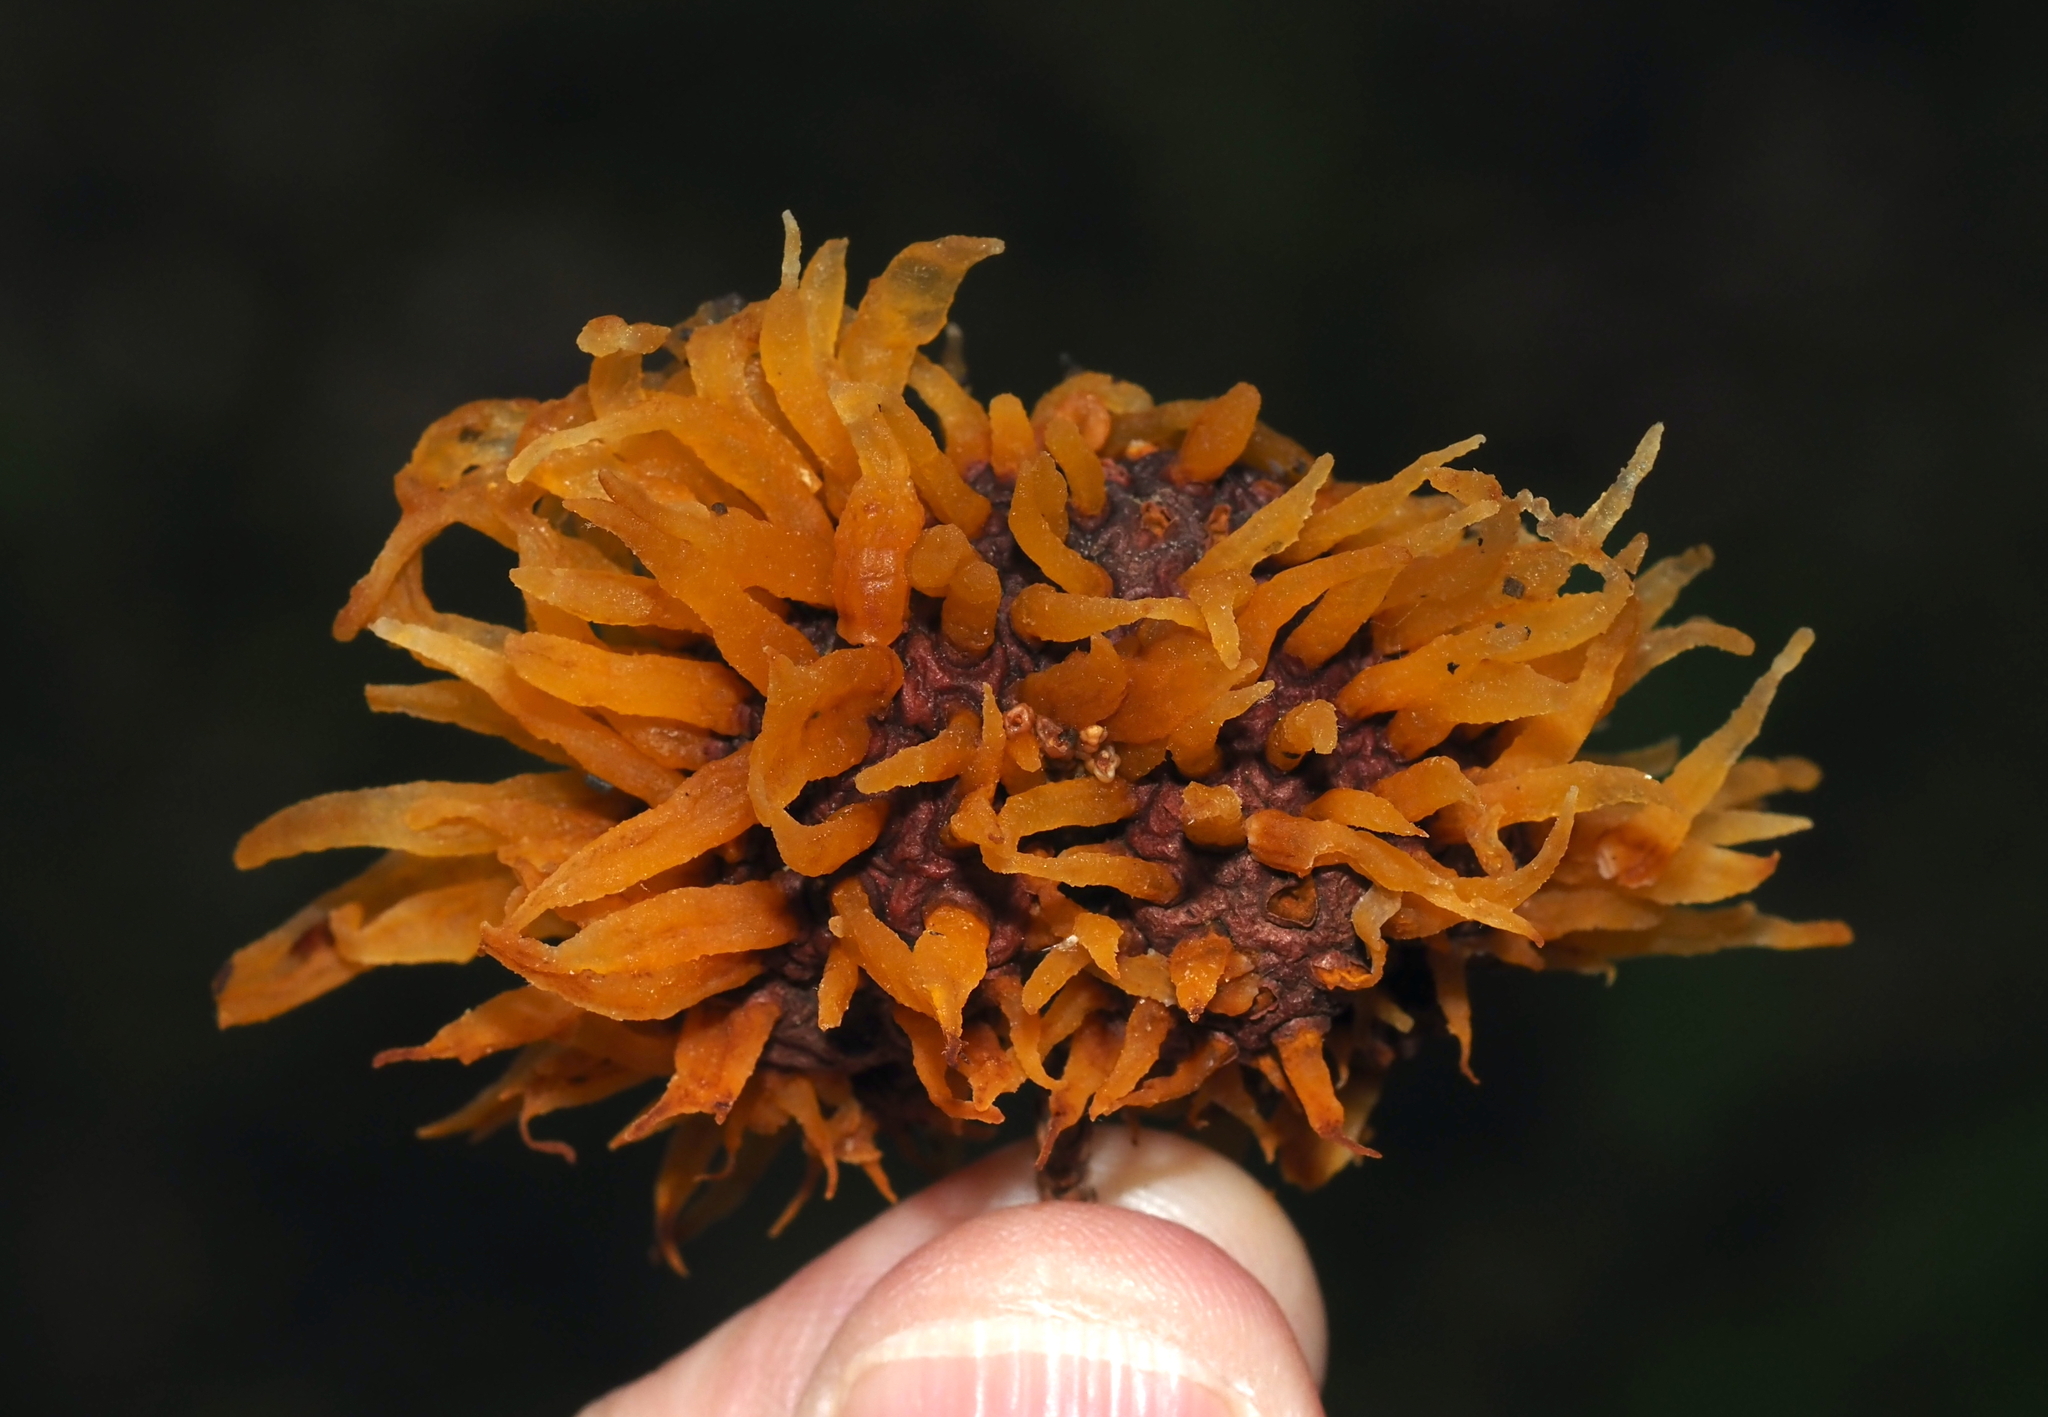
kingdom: Fungi
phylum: Basidiomycota
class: Pucciniomycetes
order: Pucciniales
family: Gymnosporangiaceae
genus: Gymnosporangium
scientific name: Gymnosporangium juniperi-virginianae
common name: Juniper-apple rust
